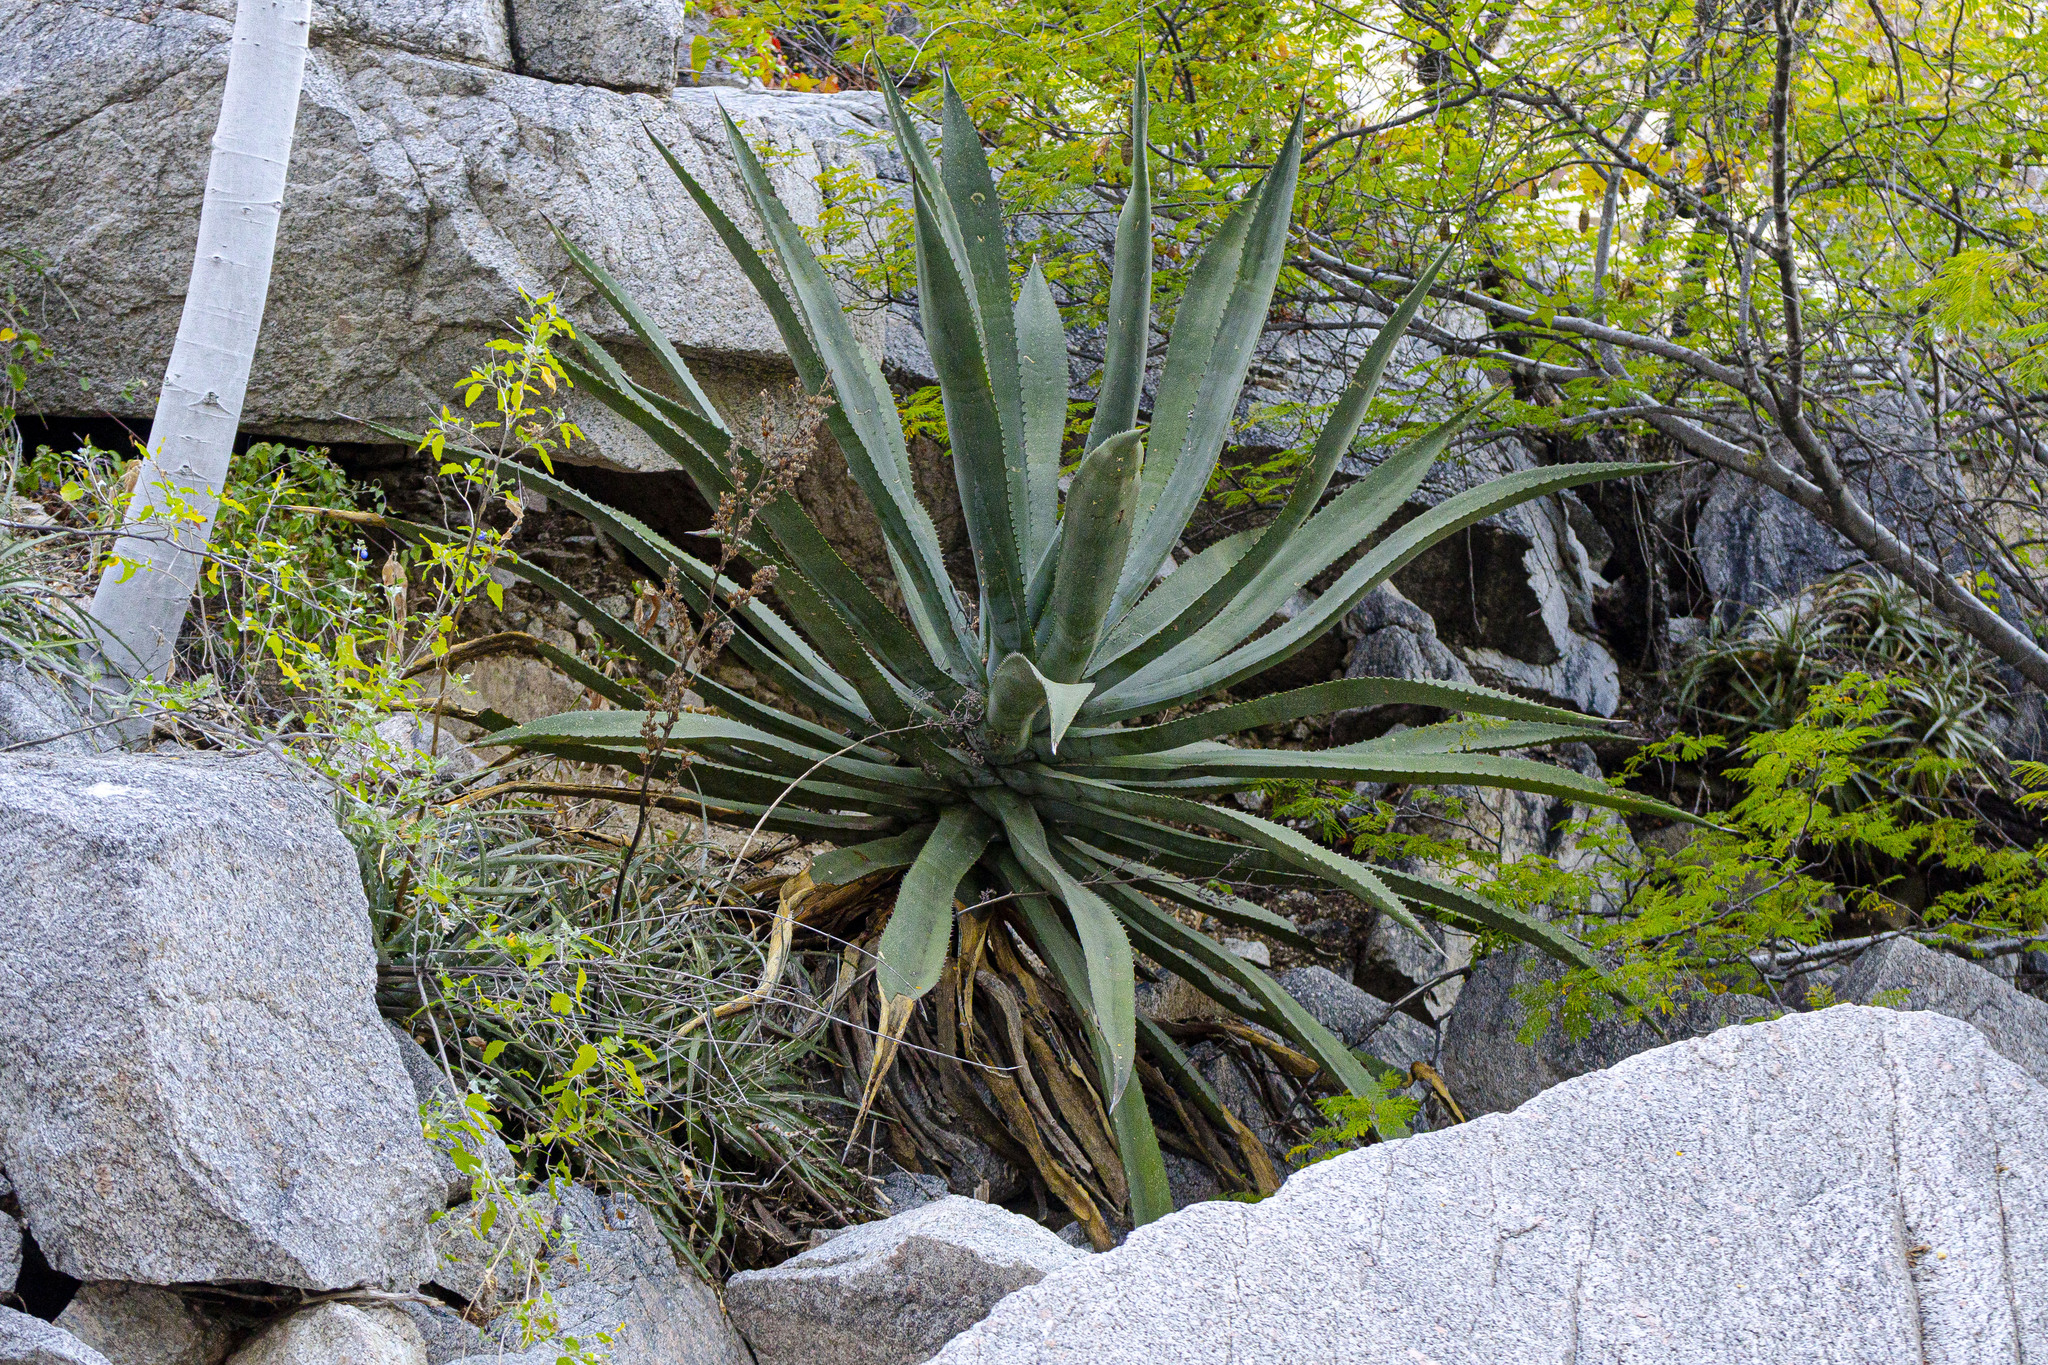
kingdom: Plantae
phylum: Tracheophyta
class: Liliopsida
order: Asparagales
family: Asparagaceae
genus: Agave
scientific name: Agave aurea
